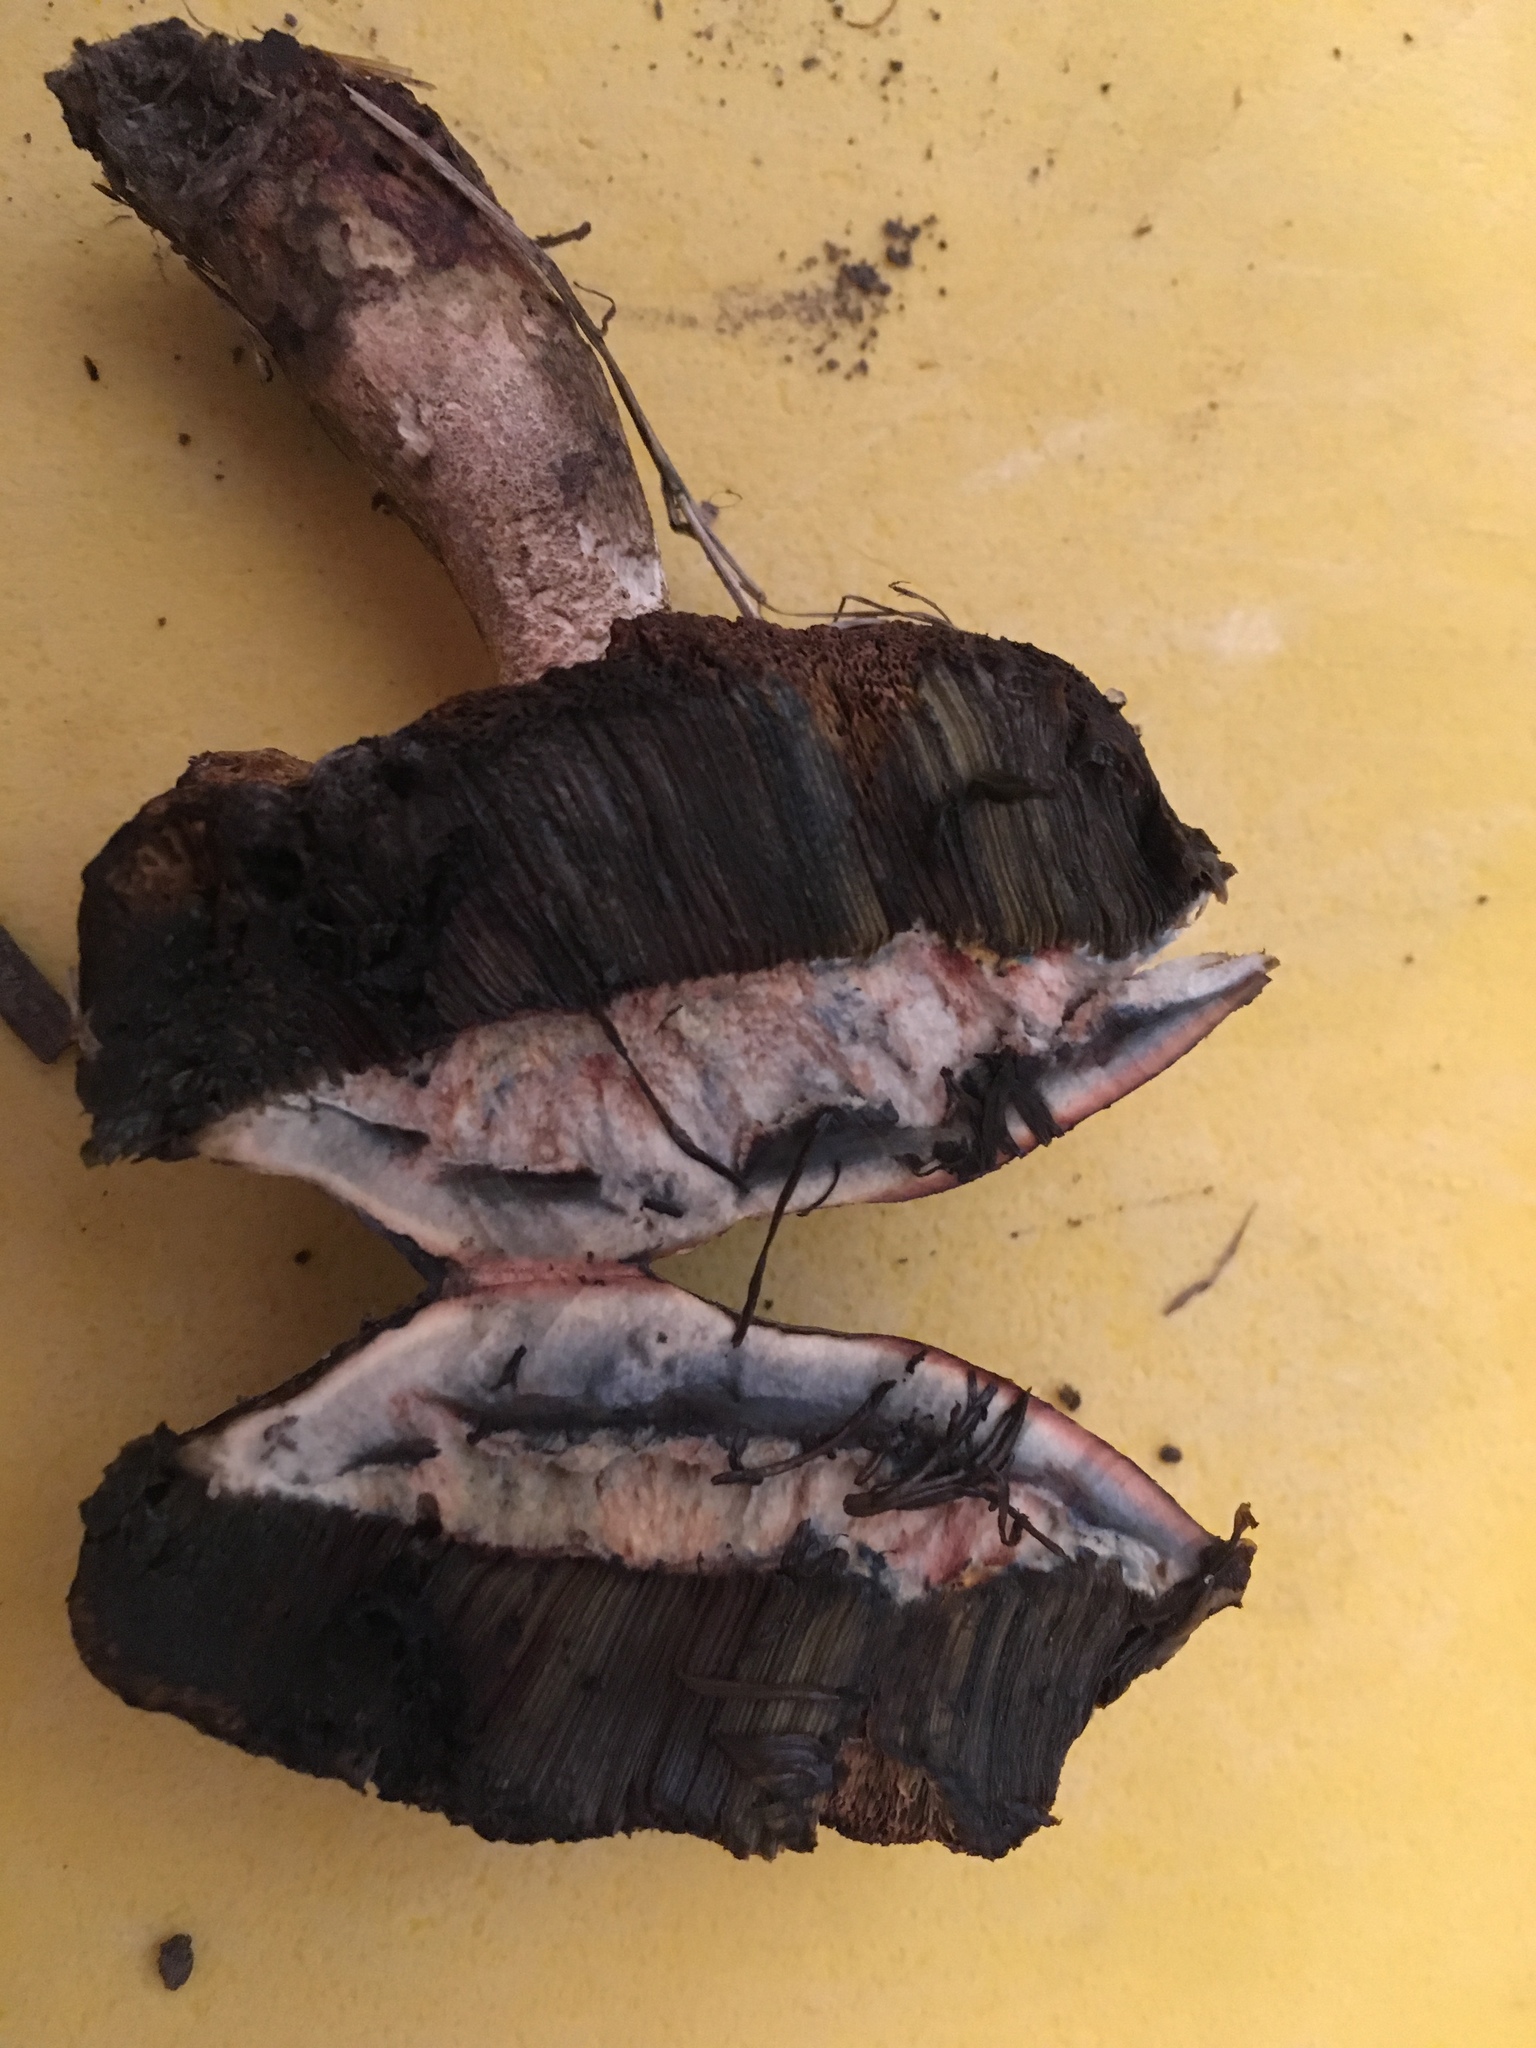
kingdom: Fungi
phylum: Basidiomycota
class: Agaricomycetes
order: Boletales
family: Boletaceae
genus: Porphyrellus
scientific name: Porphyrellus sordidus
